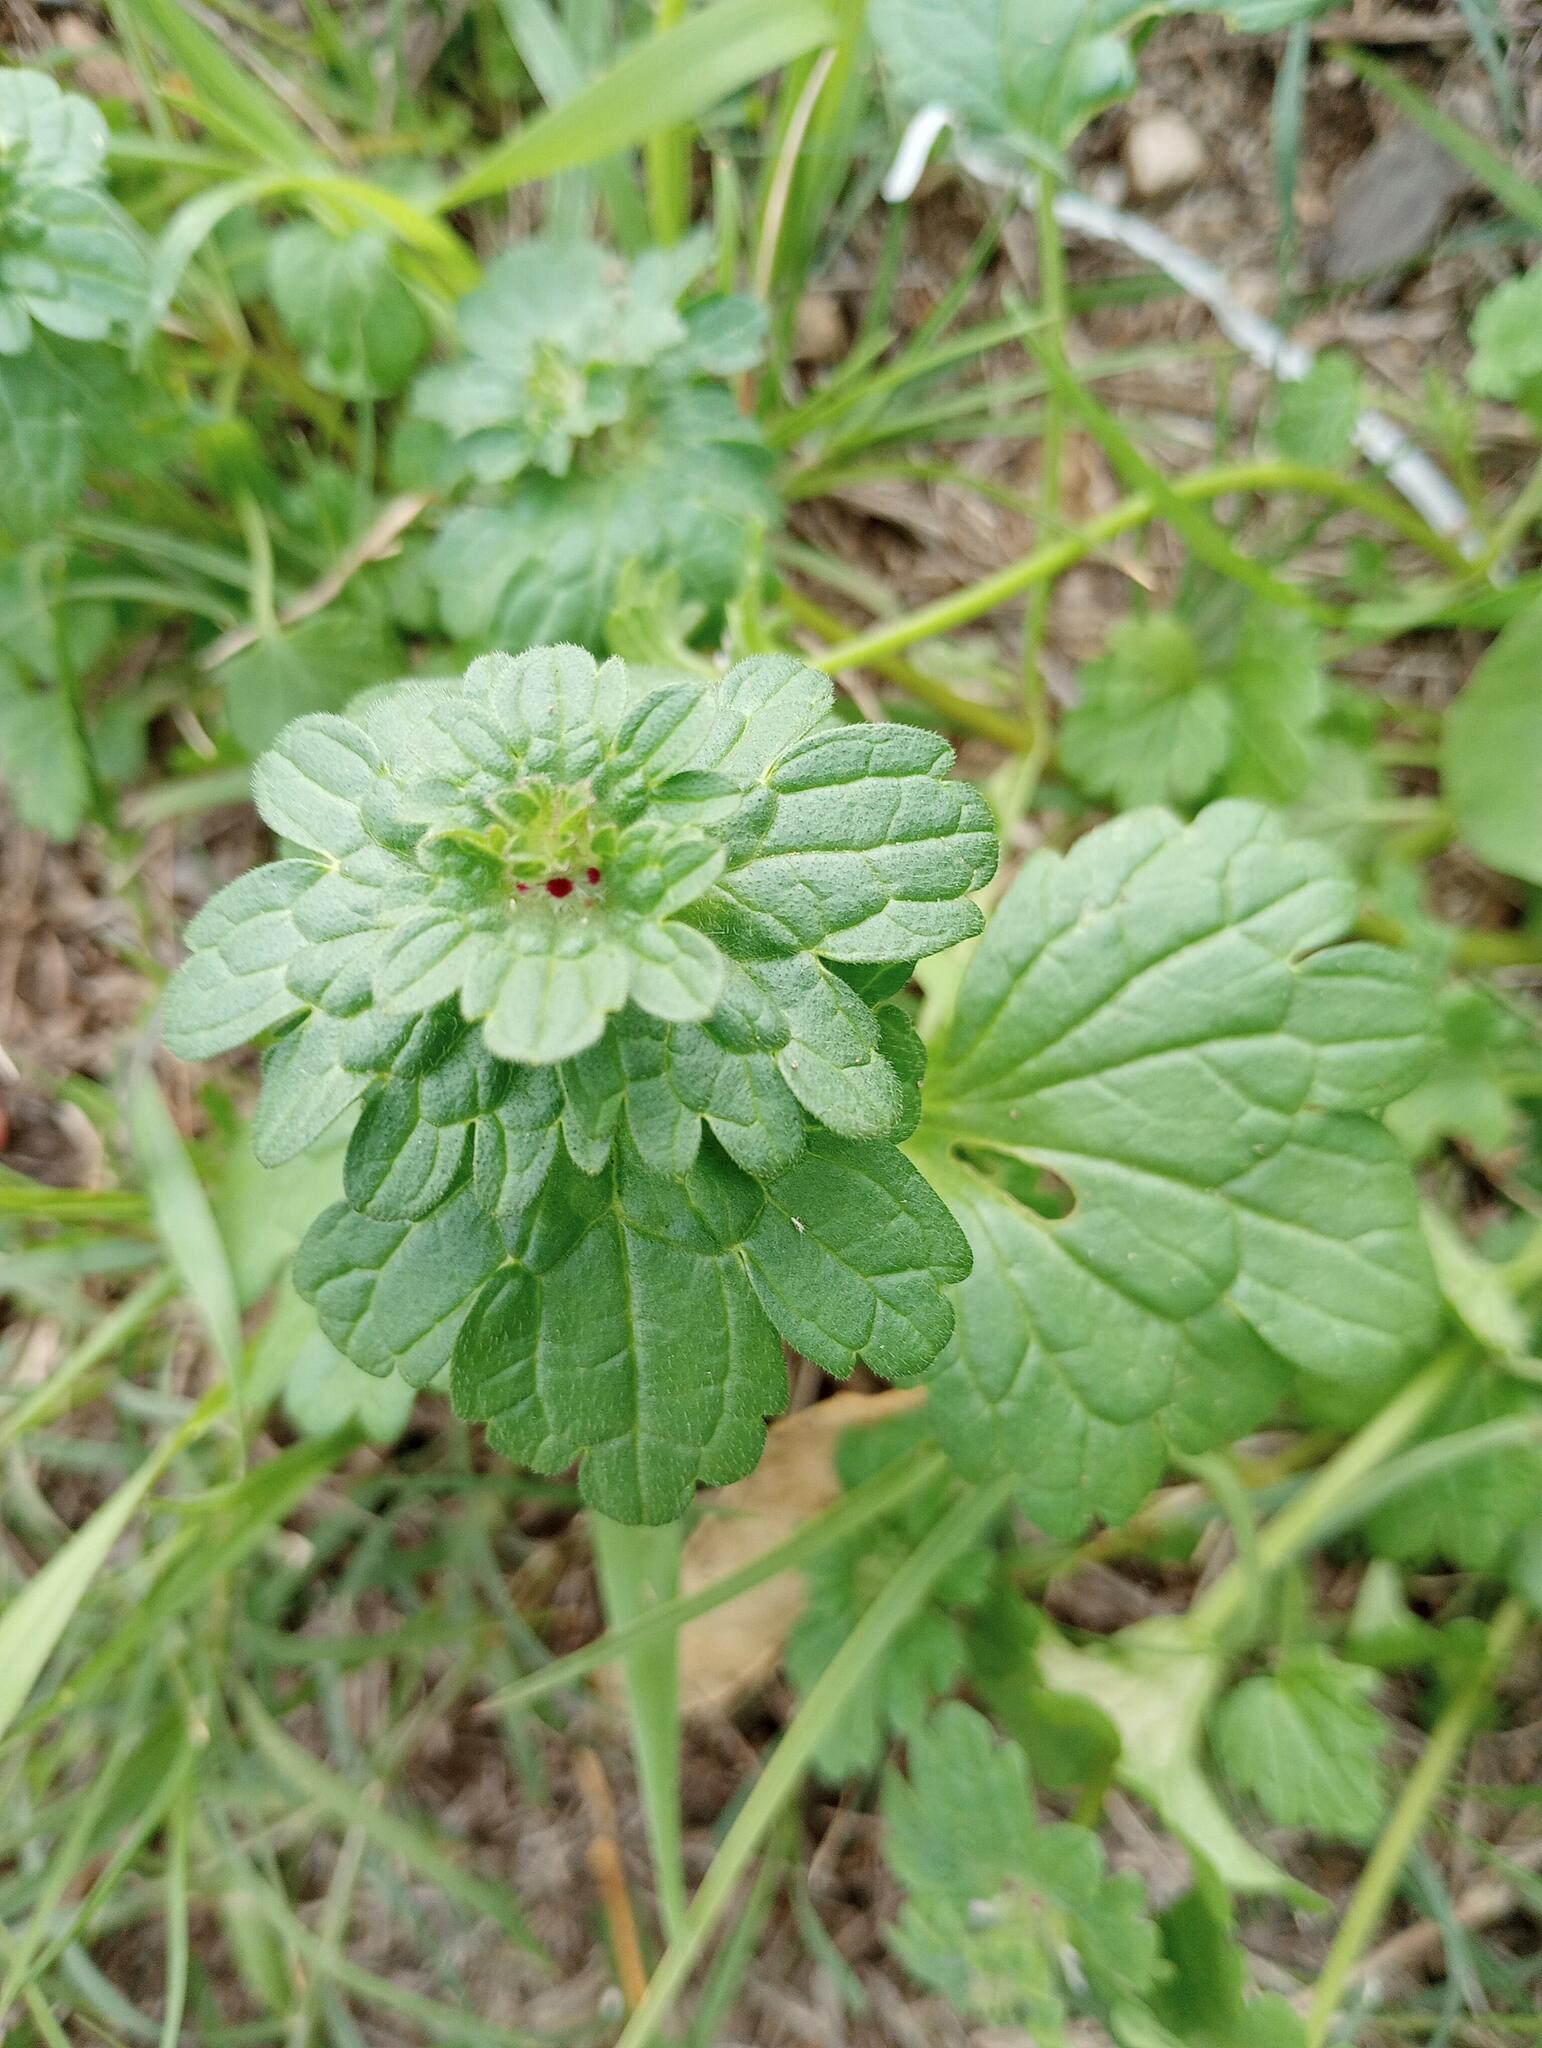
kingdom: Plantae
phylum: Tracheophyta
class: Magnoliopsida
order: Lamiales
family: Lamiaceae
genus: Lamium
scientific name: Lamium amplexicaule
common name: Henbit dead-nettle
